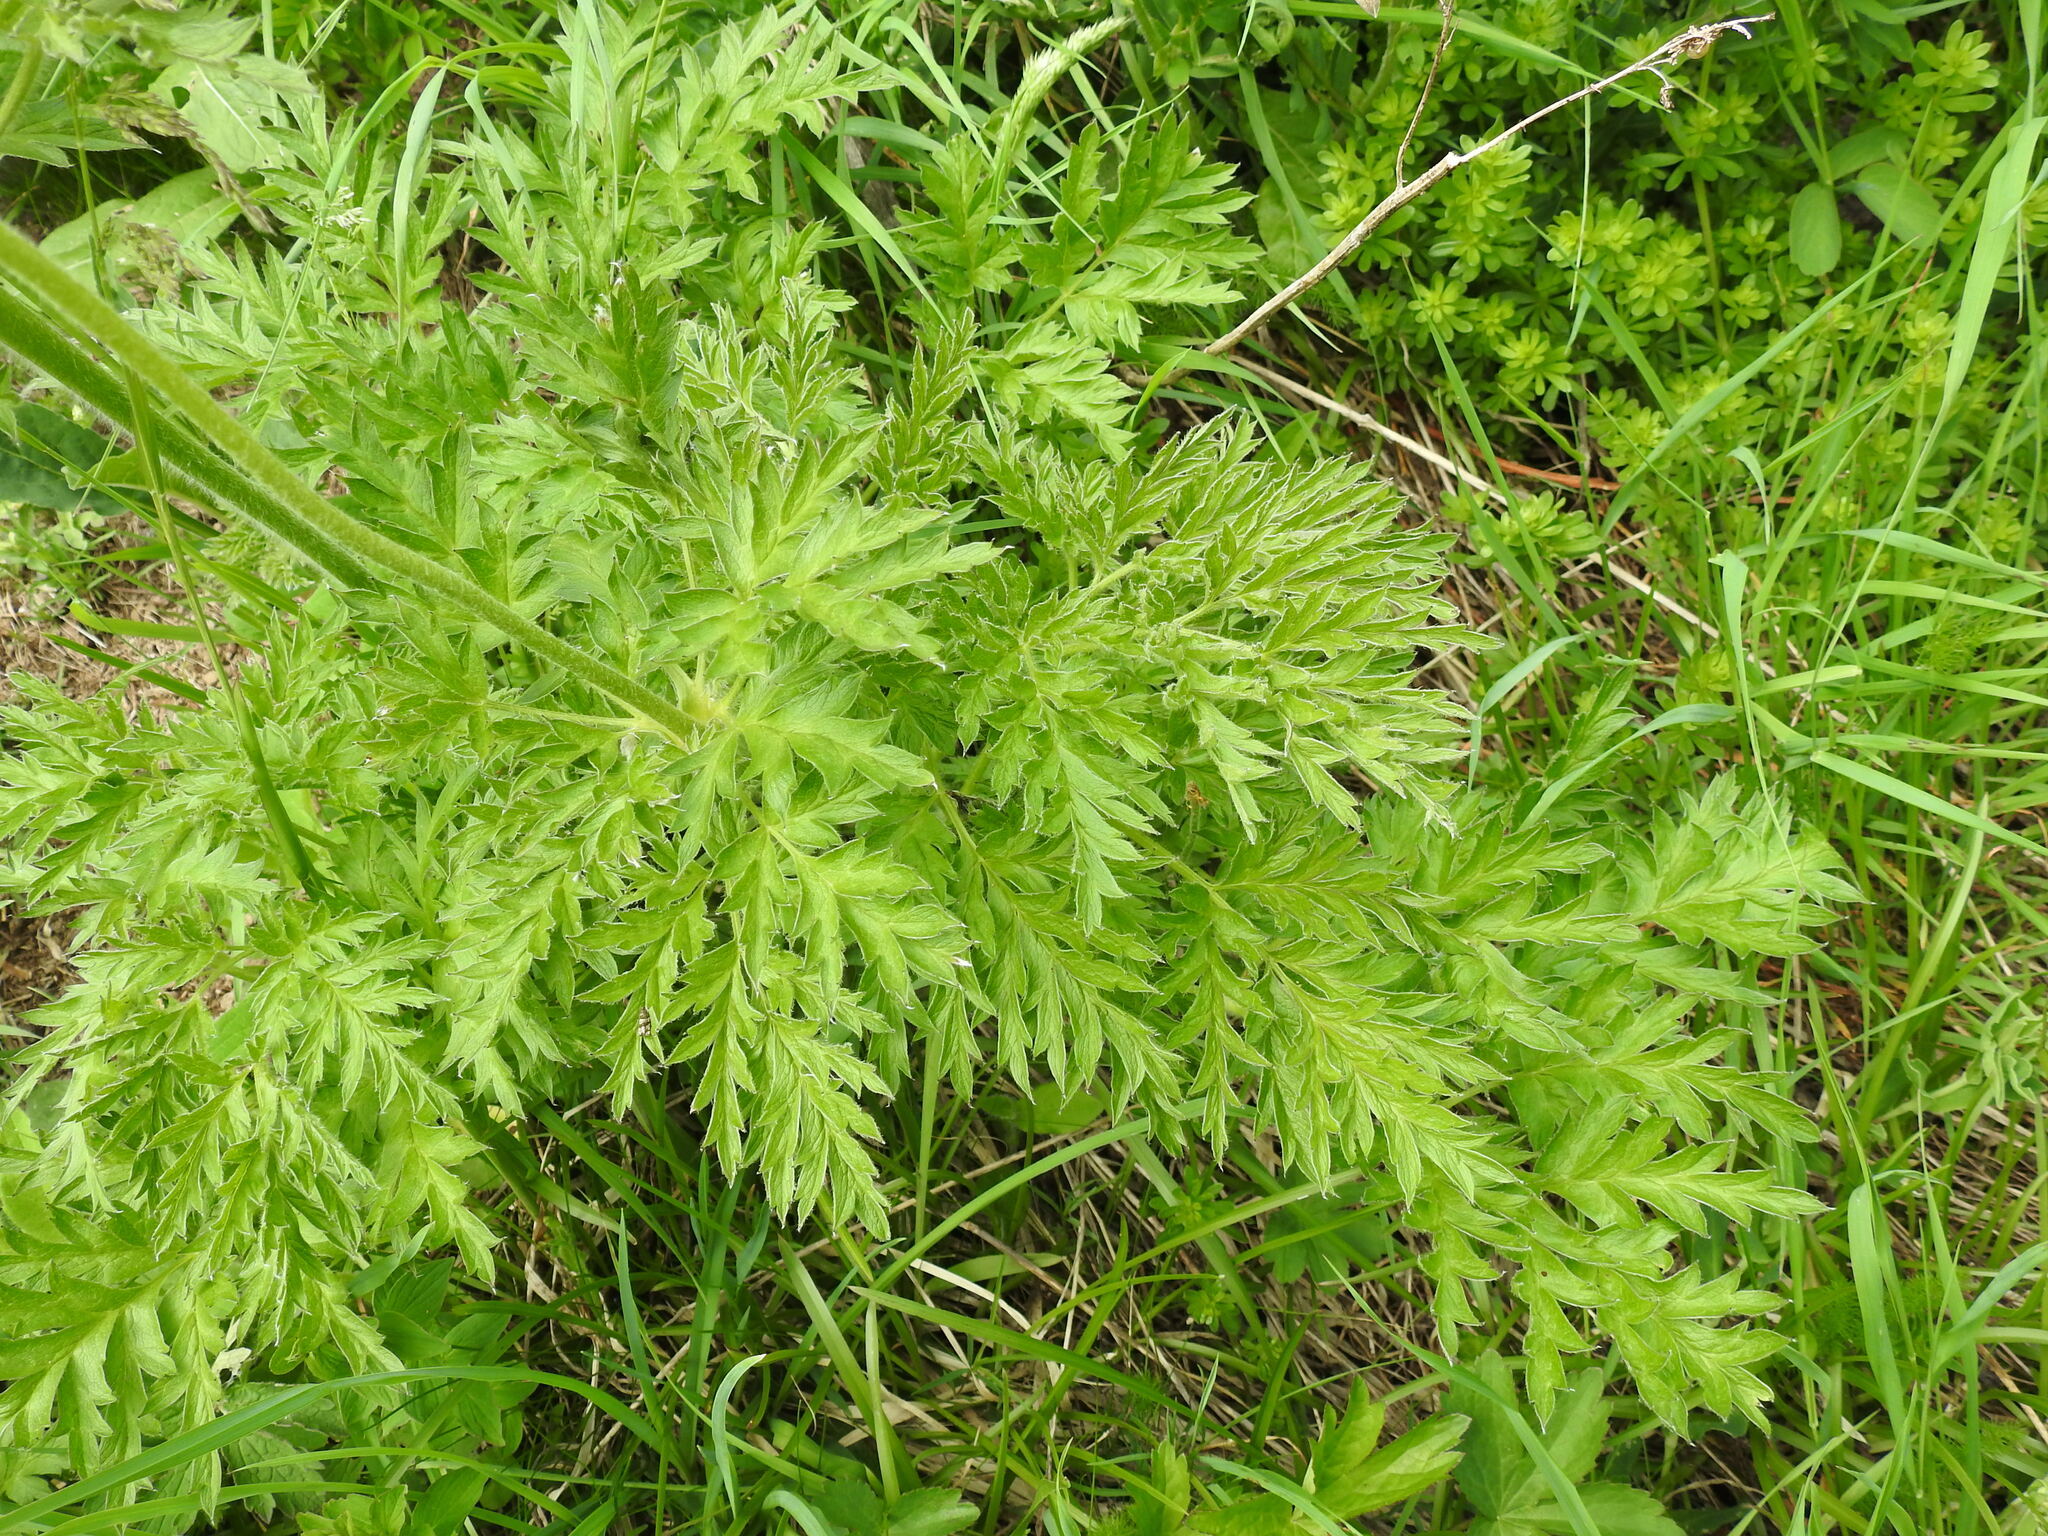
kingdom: Plantae
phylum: Tracheophyta
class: Magnoliopsida
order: Ranunculales
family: Ranunculaceae
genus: Pulsatilla
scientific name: Pulsatilla alpina
